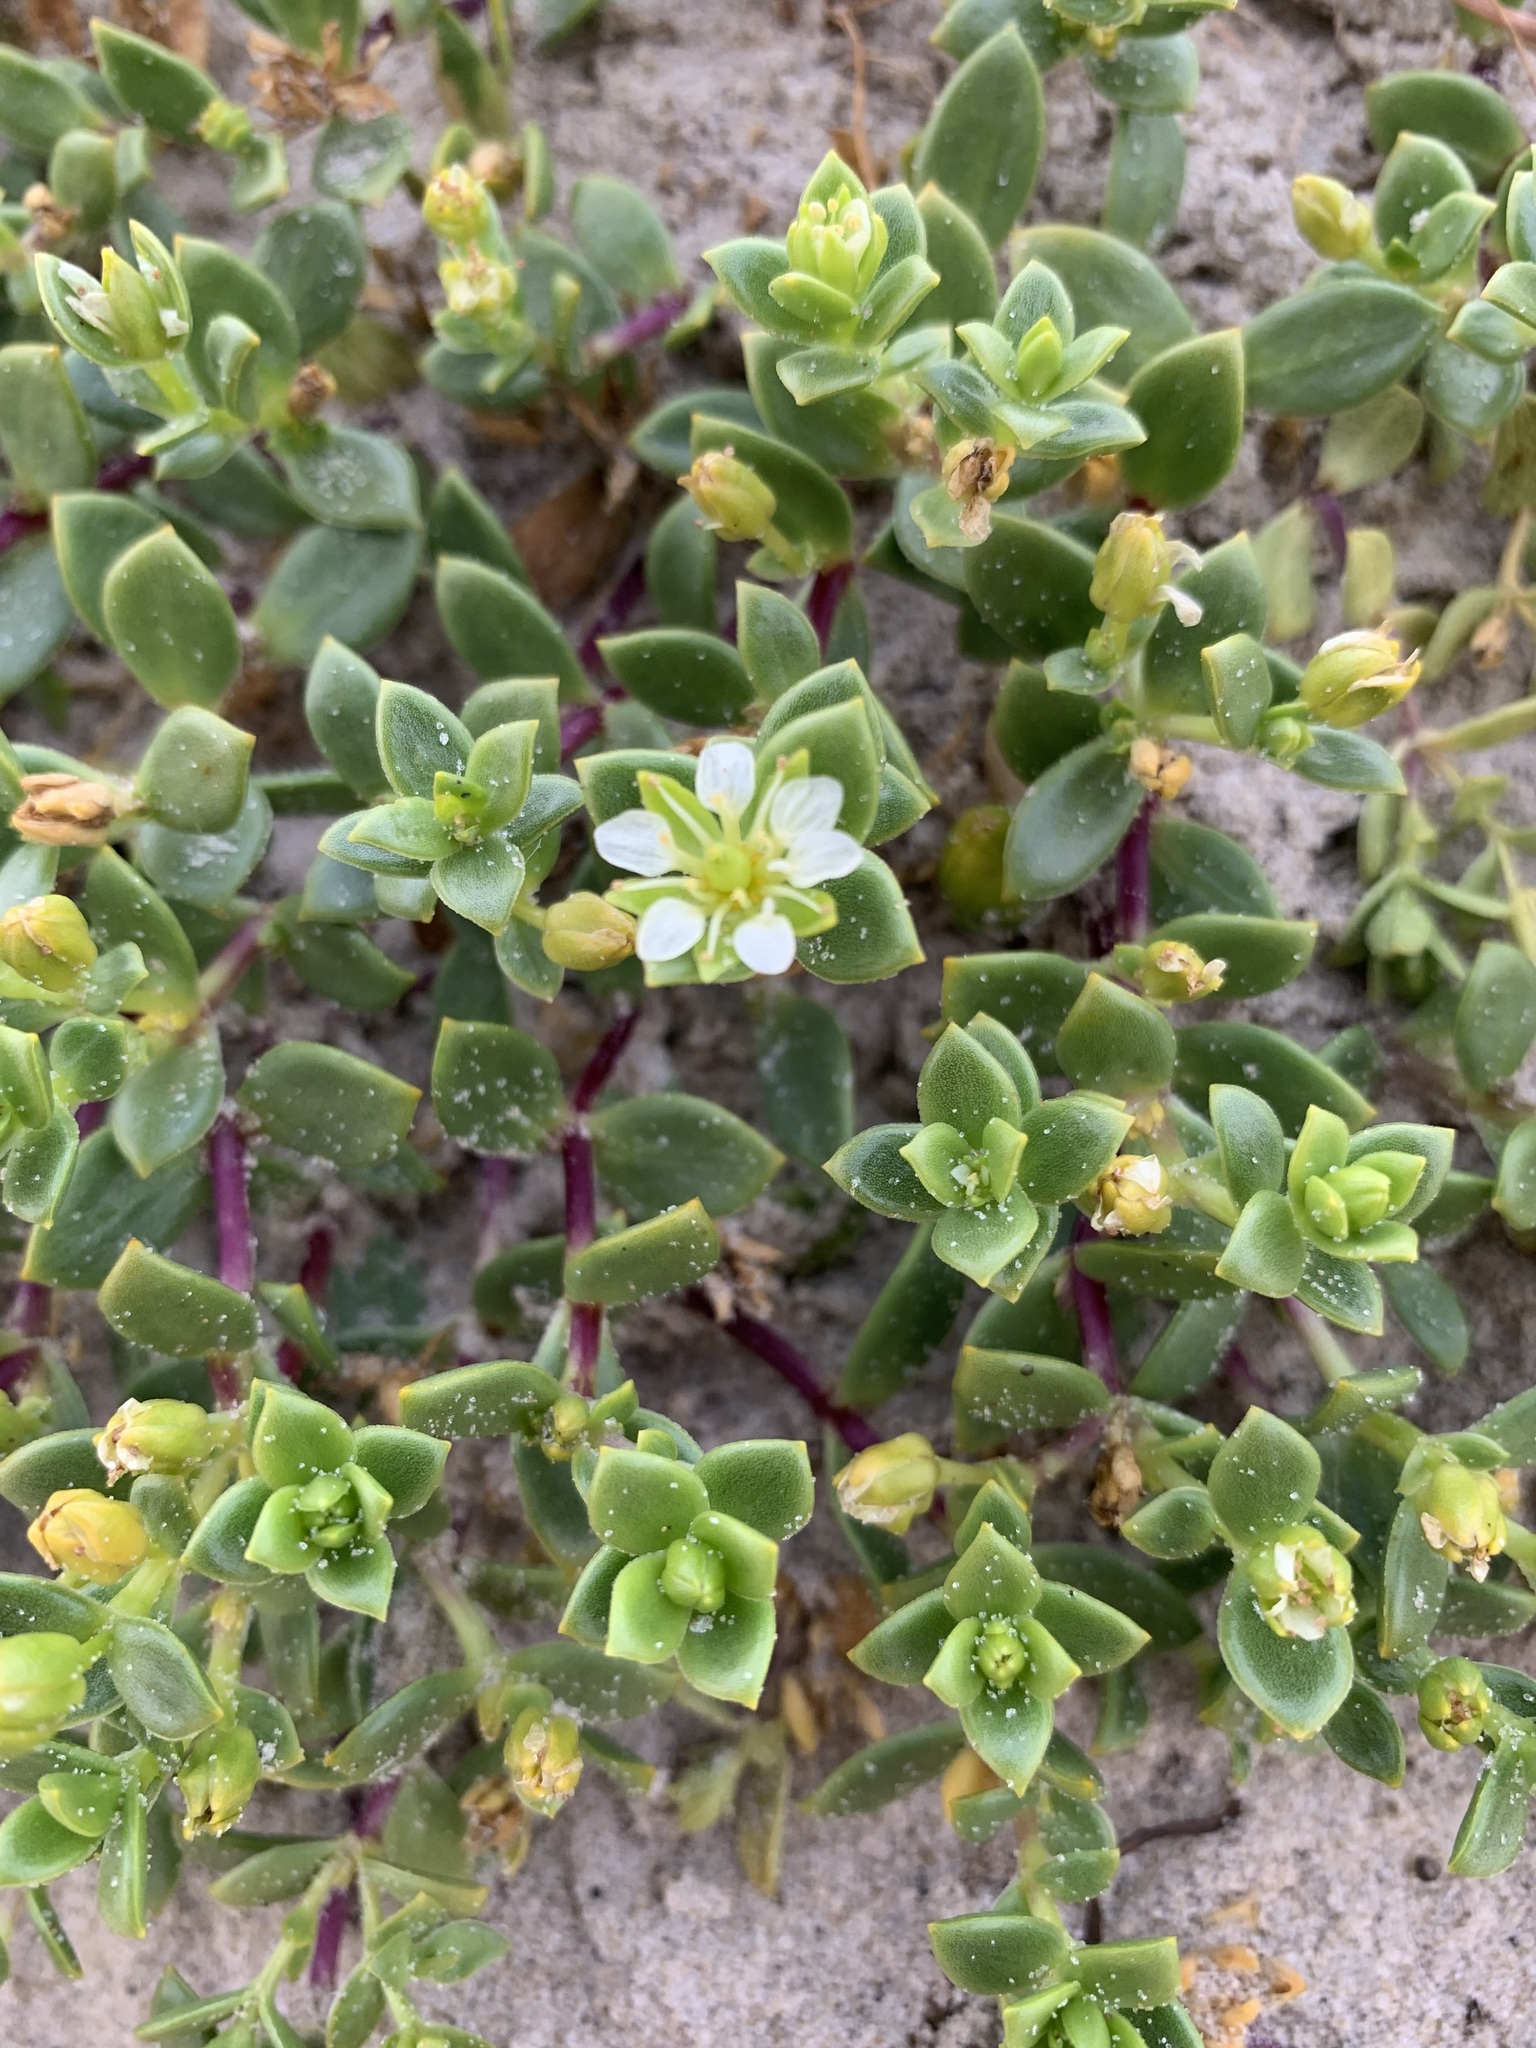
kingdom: Plantae
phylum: Tracheophyta
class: Magnoliopsida
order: Caryophyllales
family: Caryophyllaceae
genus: Honckenya
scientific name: Honckenya peploides
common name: Sea sandwort
